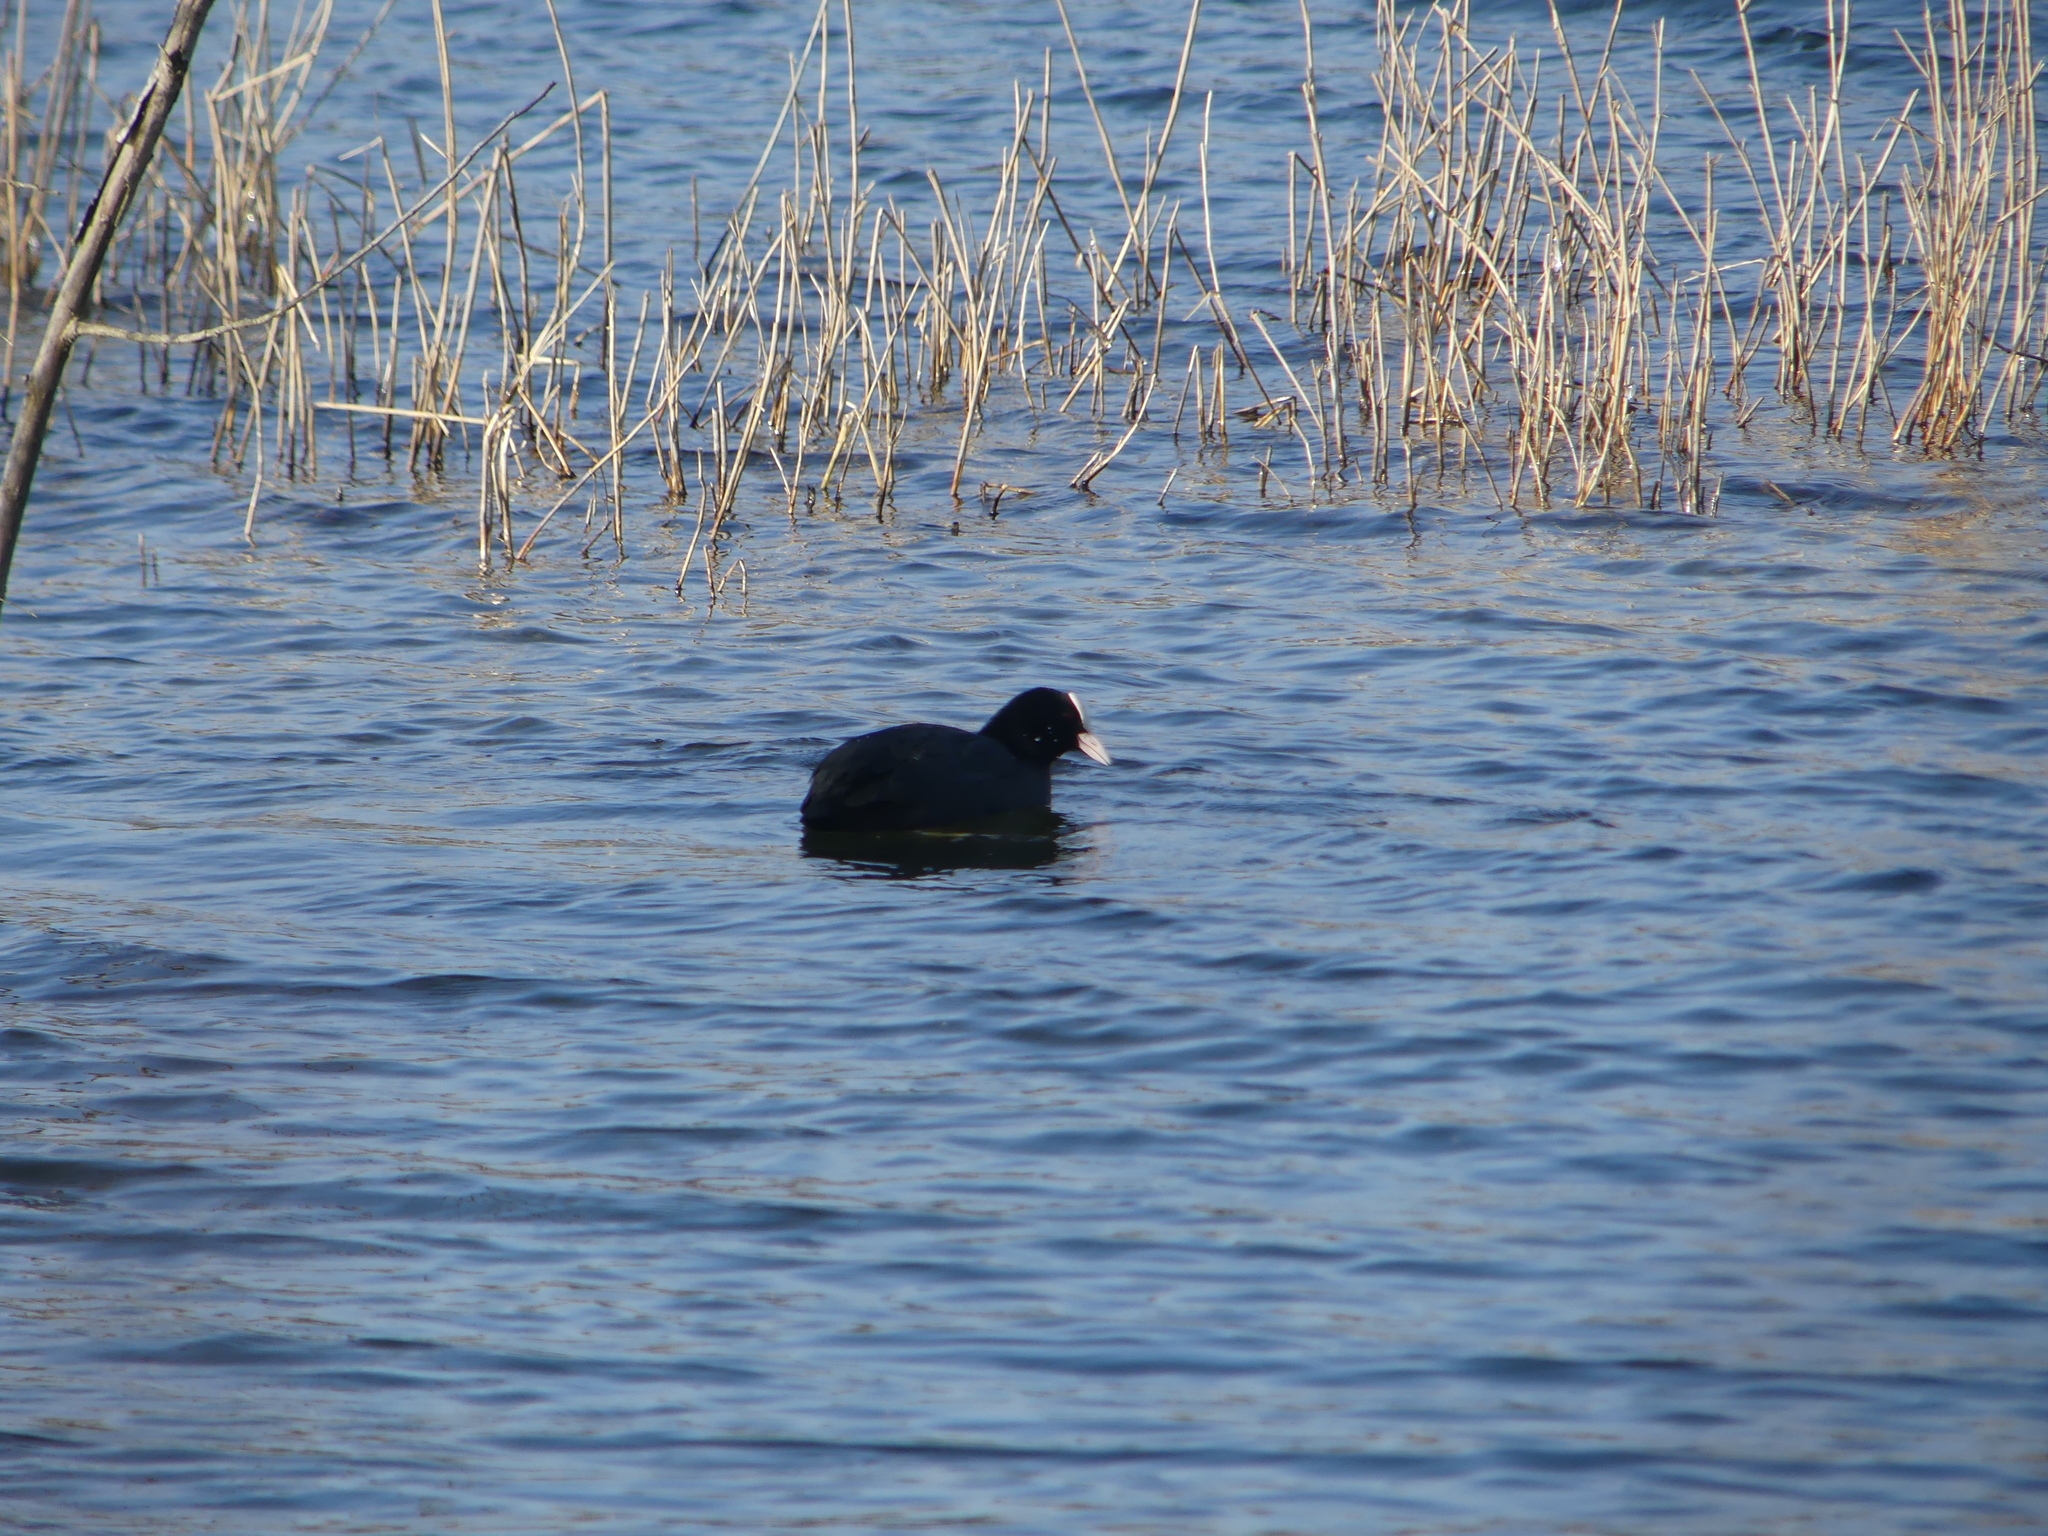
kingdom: Animalia
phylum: Chordata
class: Aves
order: Gruiformes
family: Rallidae
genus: Fulica
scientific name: Fulica atra
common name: Eurasian coot
